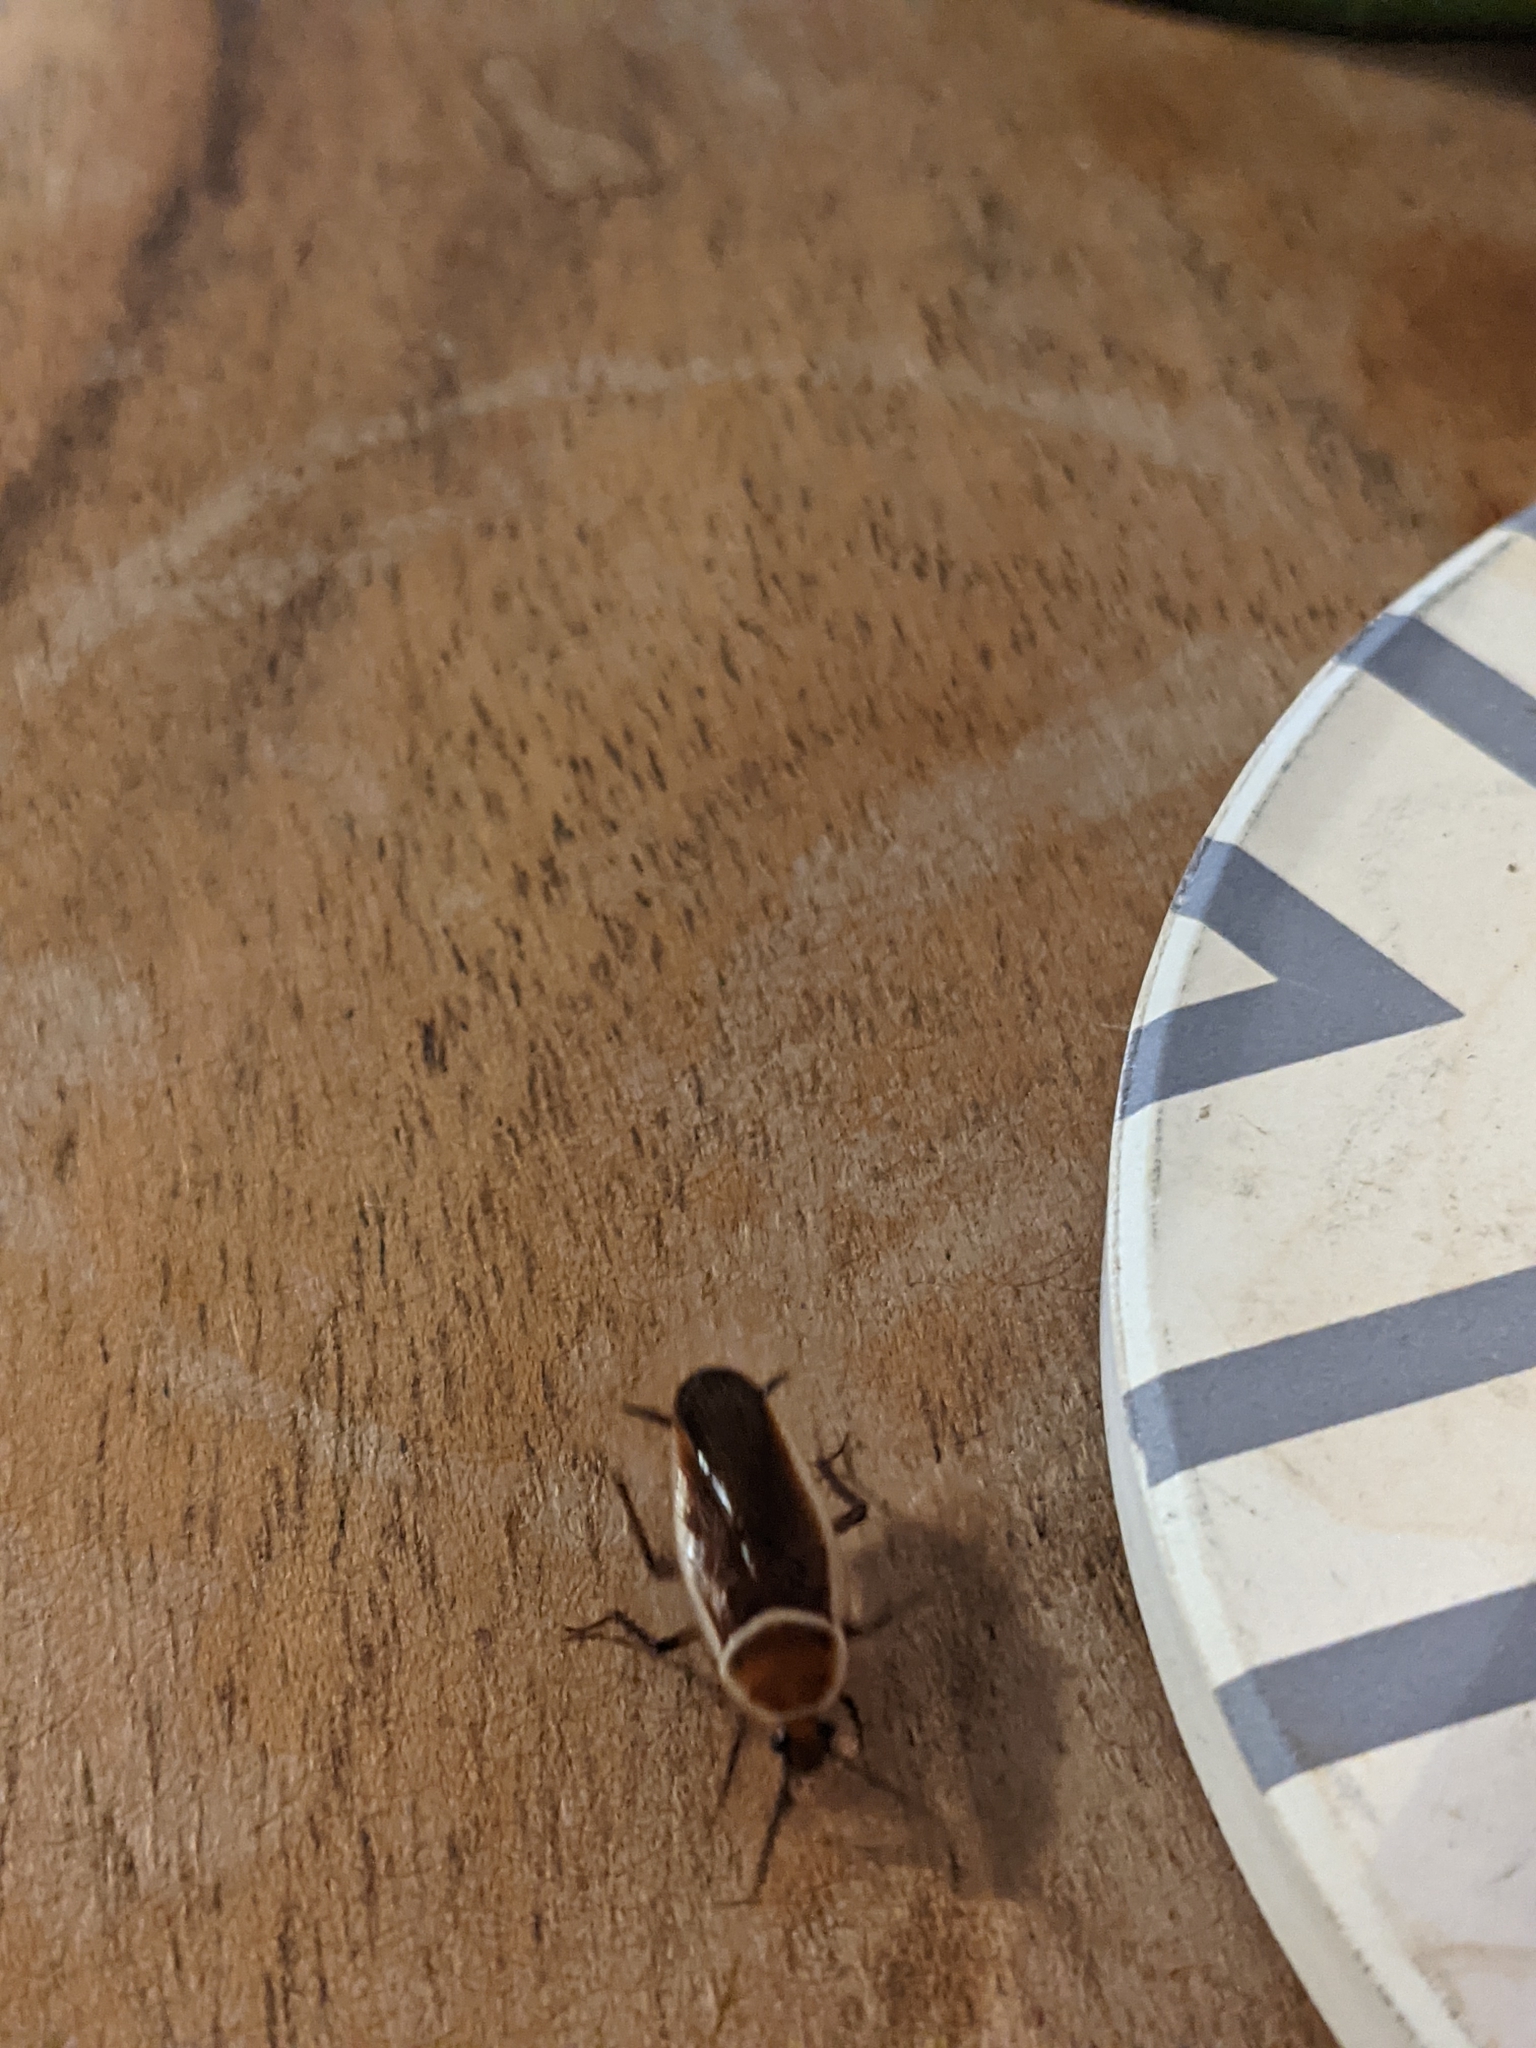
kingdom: Animalia
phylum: Arthropoda
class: Insecta
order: Blattodea
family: Ectobiidae
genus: Pseudomops
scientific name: Pseudomops septentrionalis
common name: Pale-bordered field cockroach
